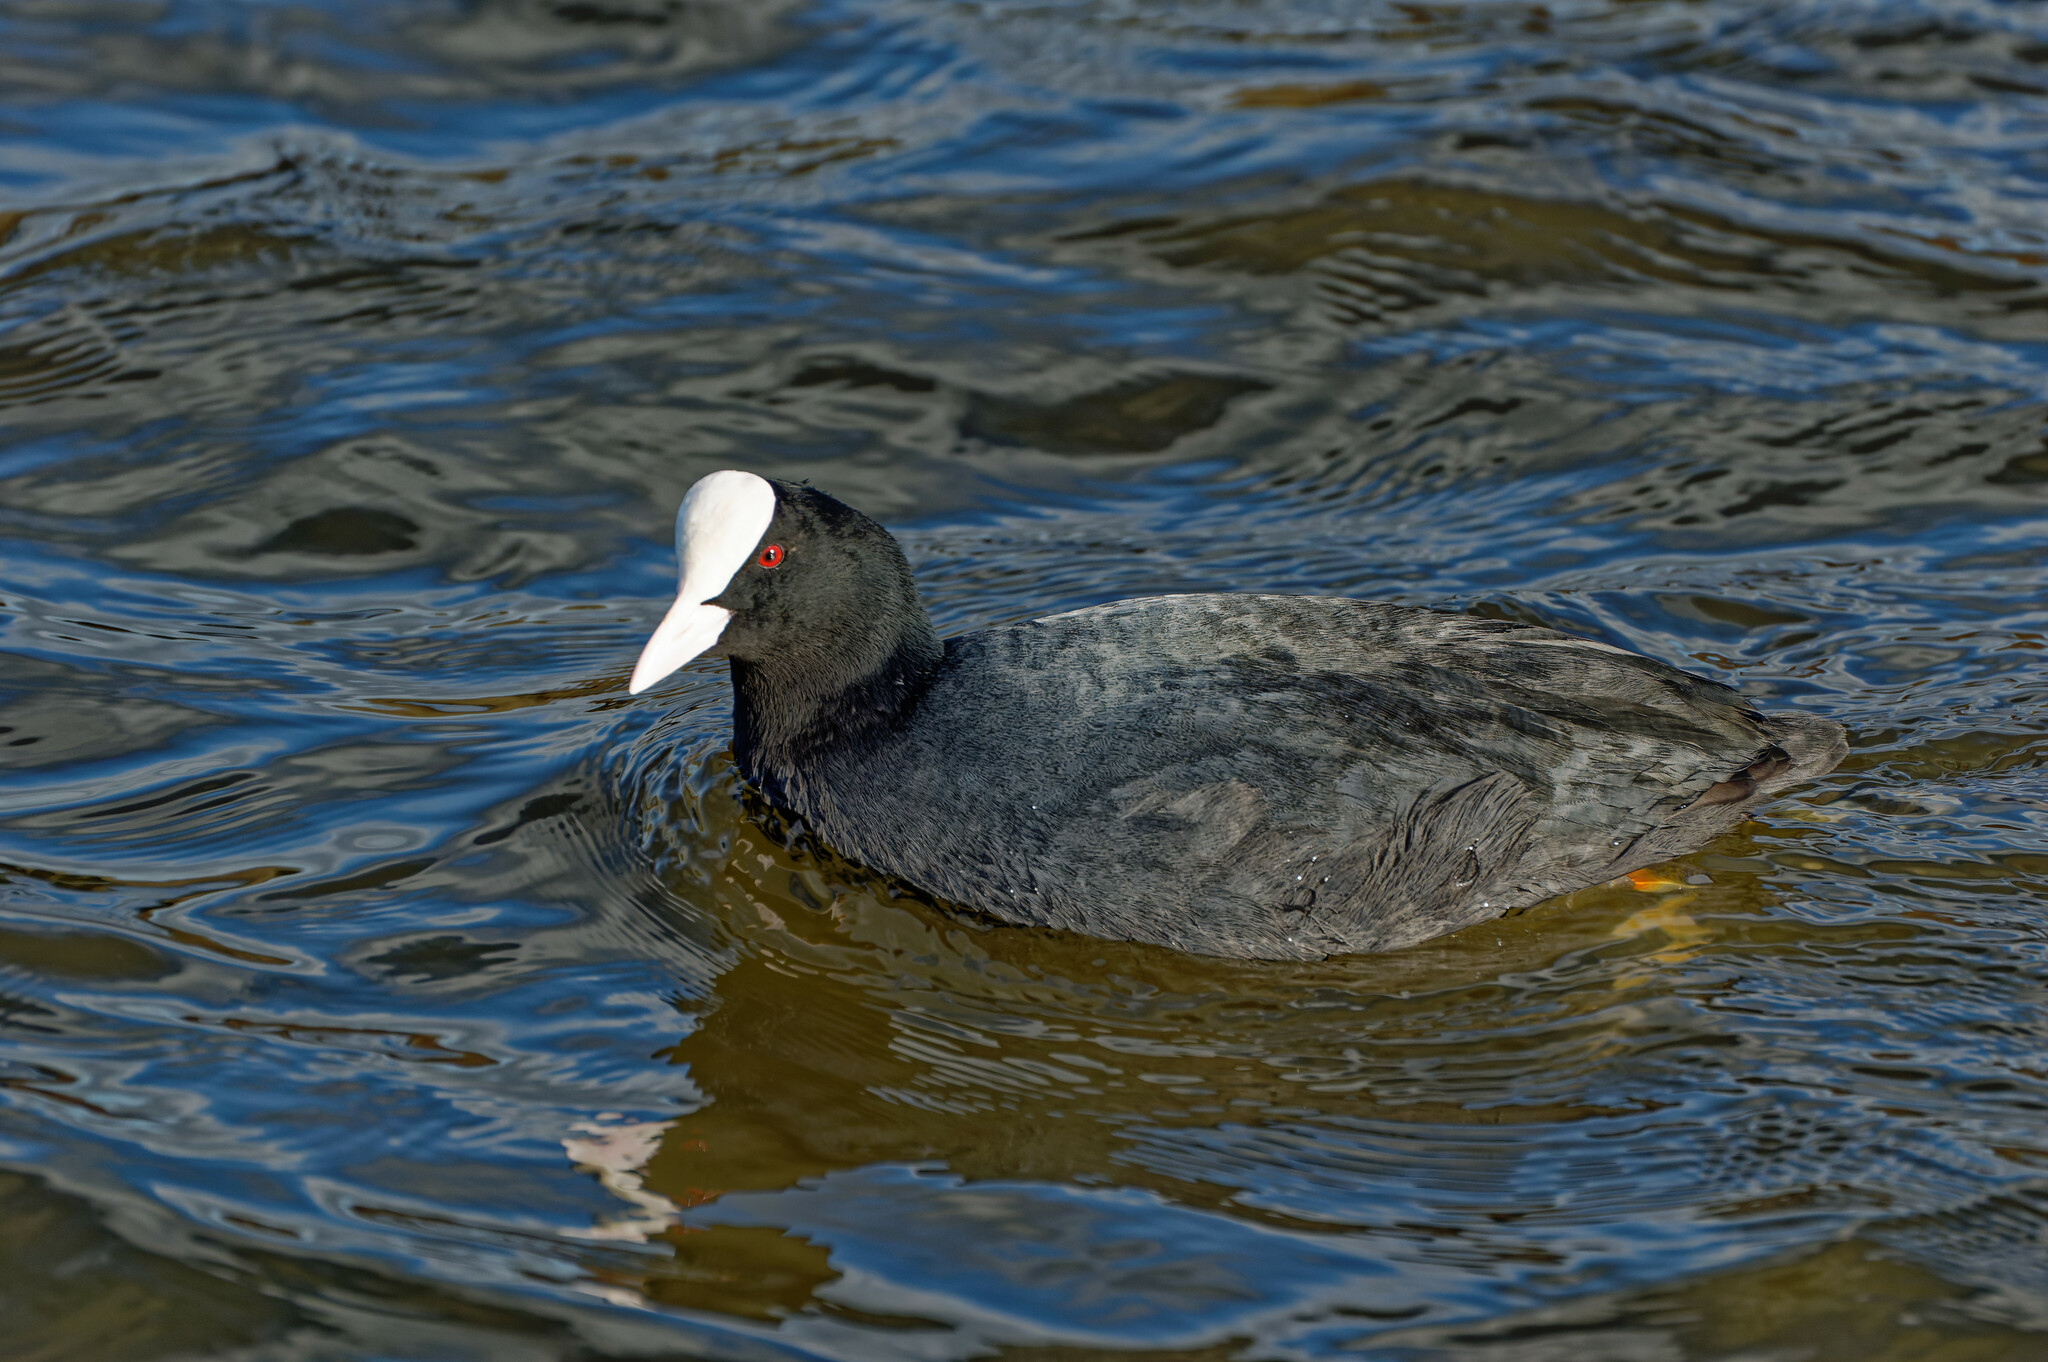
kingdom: Animalia
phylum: Chordata
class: Aves
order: Gruiformes
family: Rallidae
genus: Fulica
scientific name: Fulica atra
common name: Eurasian coot
